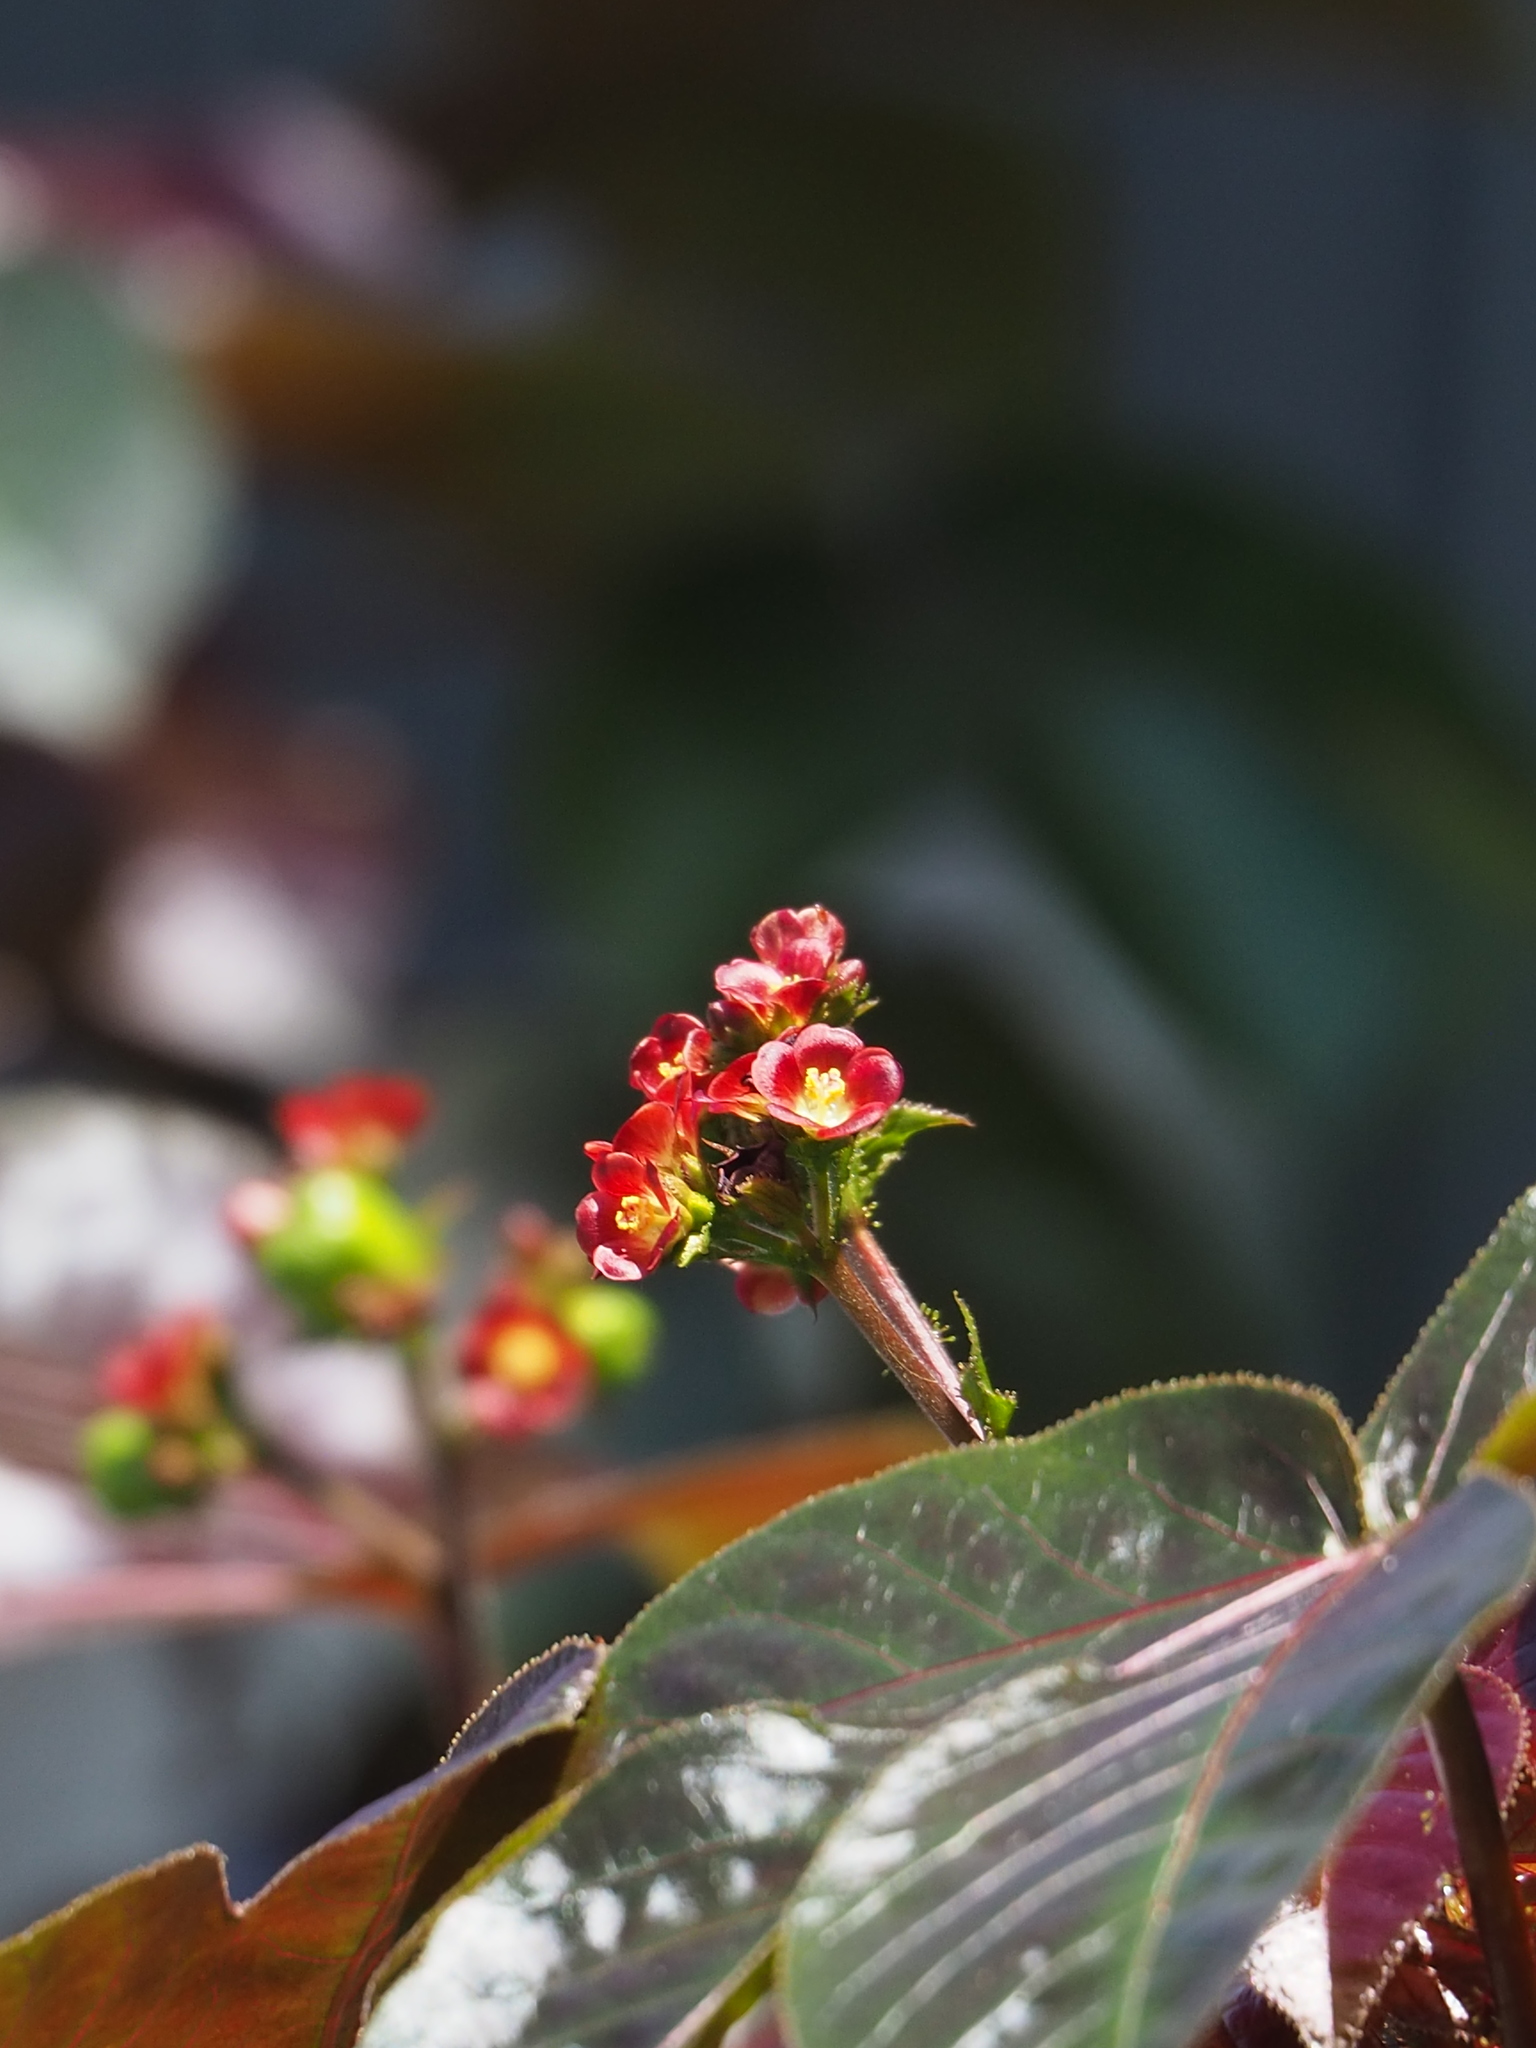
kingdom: Plantae
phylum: Tracheophyta
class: Magnoliopsida
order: Malpighiales
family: Euphorbiaceae
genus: Jatropha
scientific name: Jatropha gossypiifolia
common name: Bellyache bush
